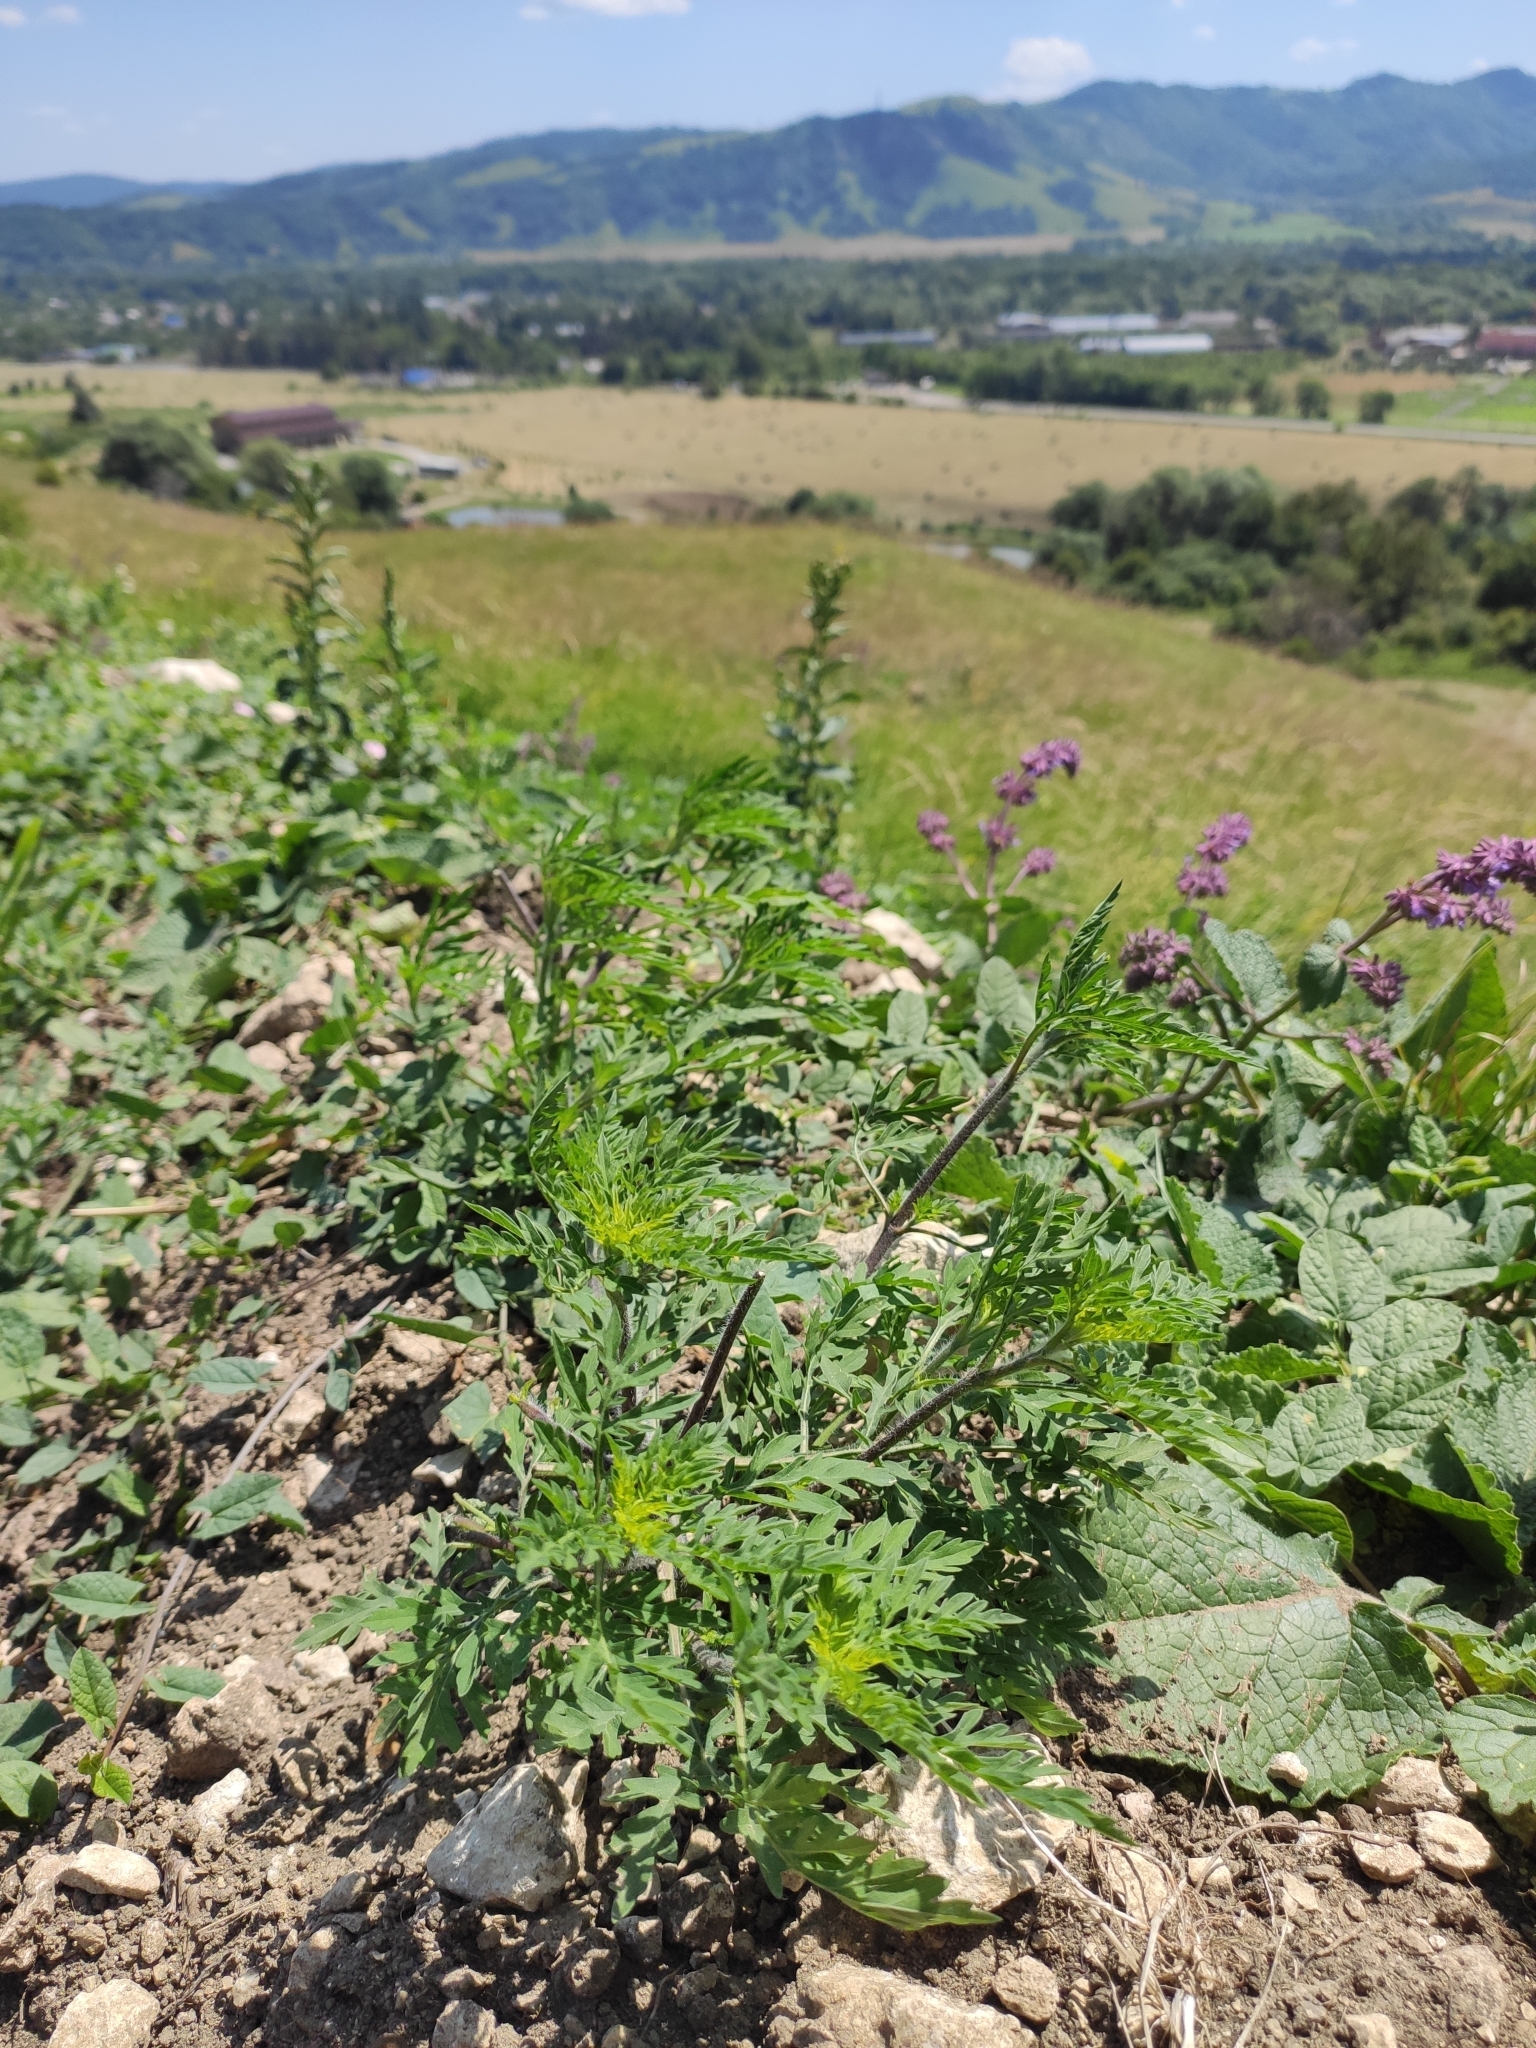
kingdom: Plantae
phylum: Tracheophyta
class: Magnoliopsida
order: Asterales
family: Asteraceae
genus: Ambrosia
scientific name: Ambrosia artemisiifolia
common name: Annual ragweed
